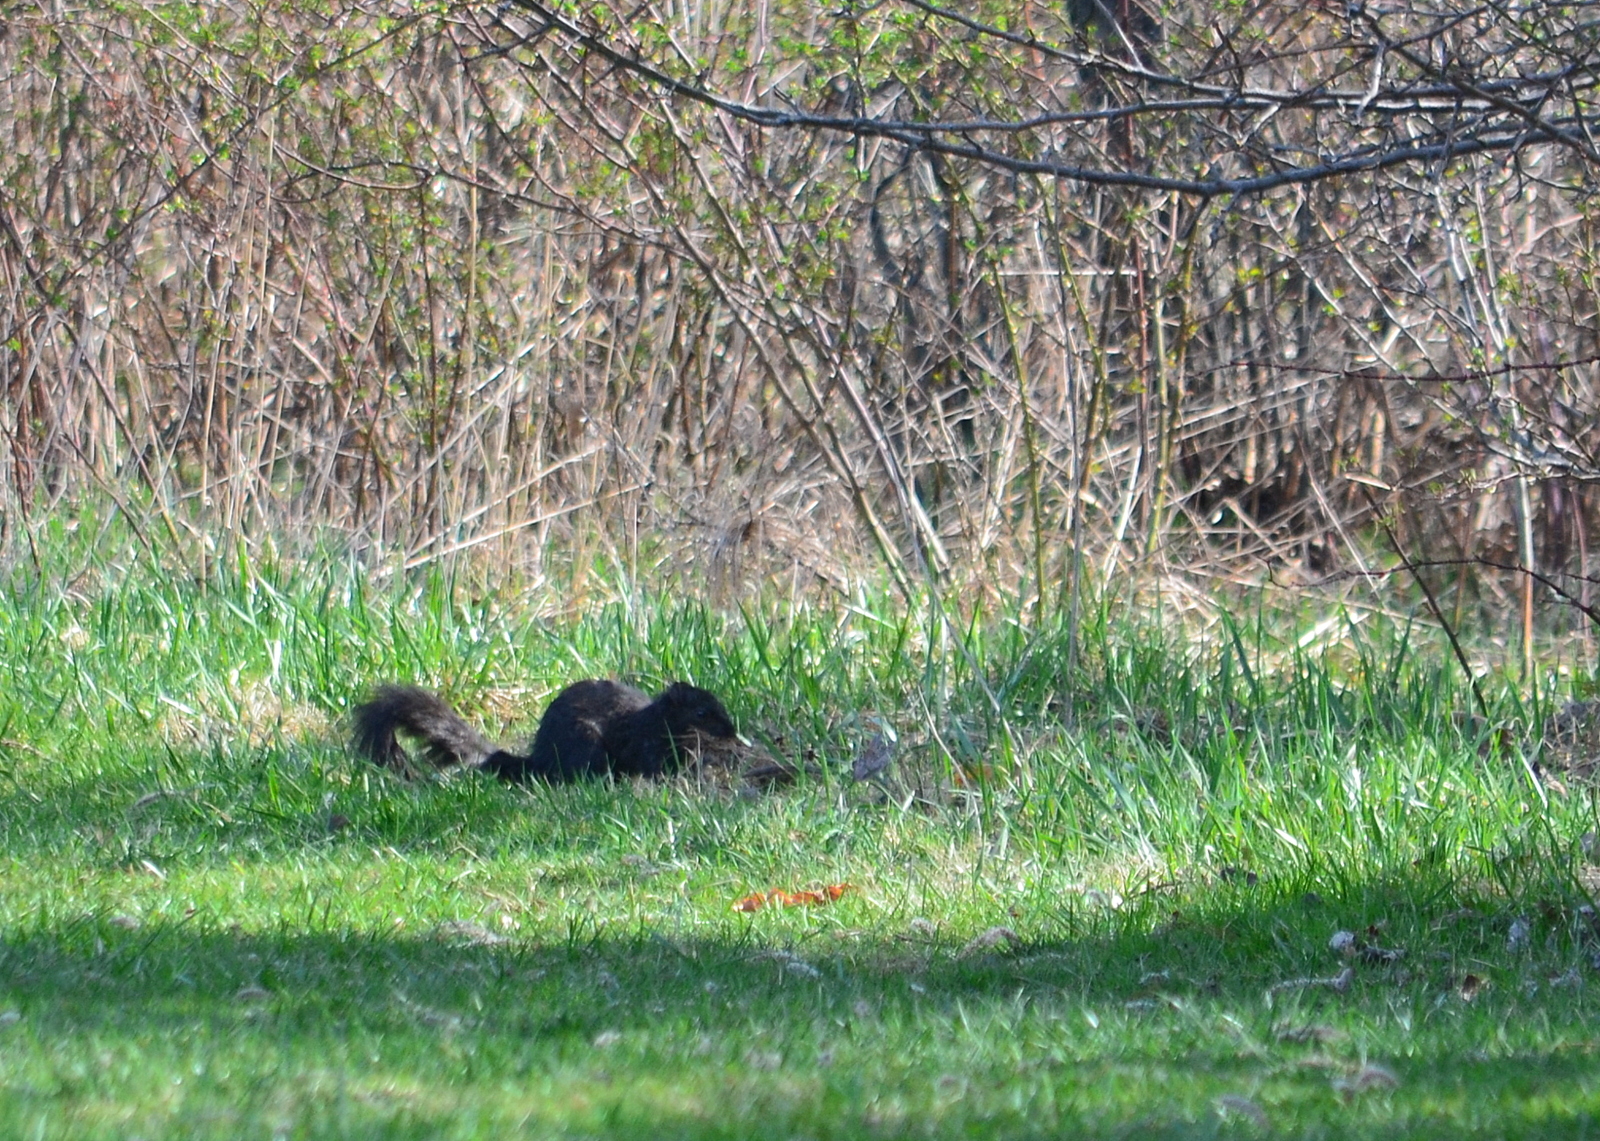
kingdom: Animalia
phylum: Chordata
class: Mammalia
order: Rodentia
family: Sciuridae
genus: Sciurus
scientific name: Sciurus carolinensis
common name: Eastern gray squirrel
